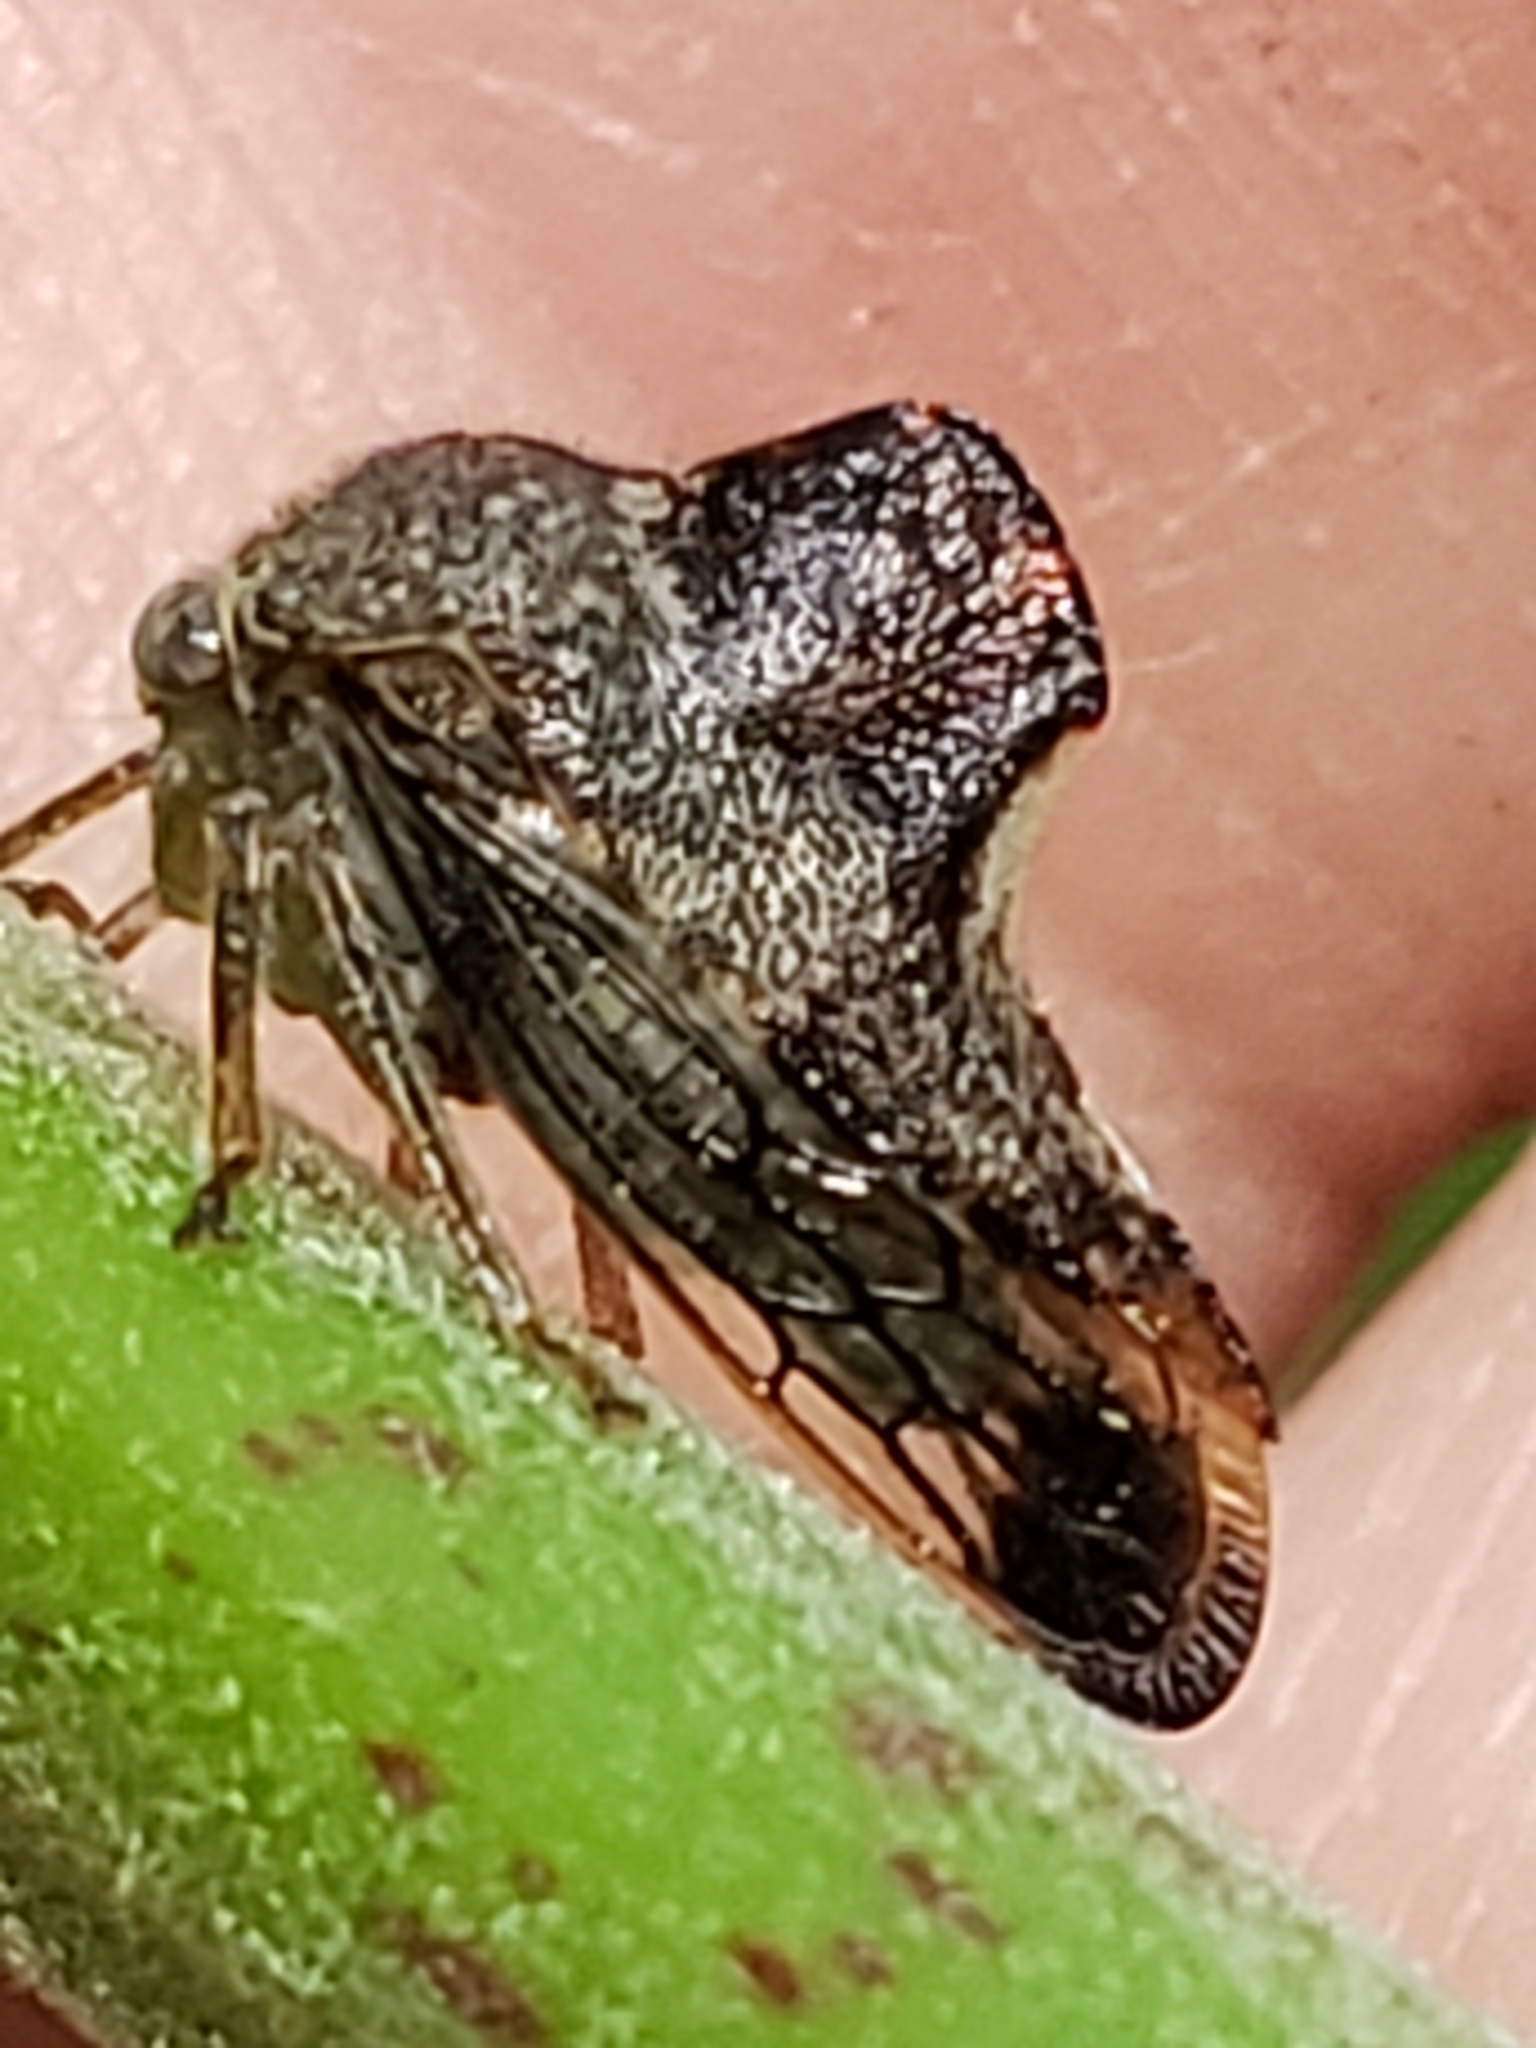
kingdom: Animalia
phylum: Arthropoda
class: Insecta
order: Hemiptera
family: Membracidae
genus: Telamona
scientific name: Telamona decorata
